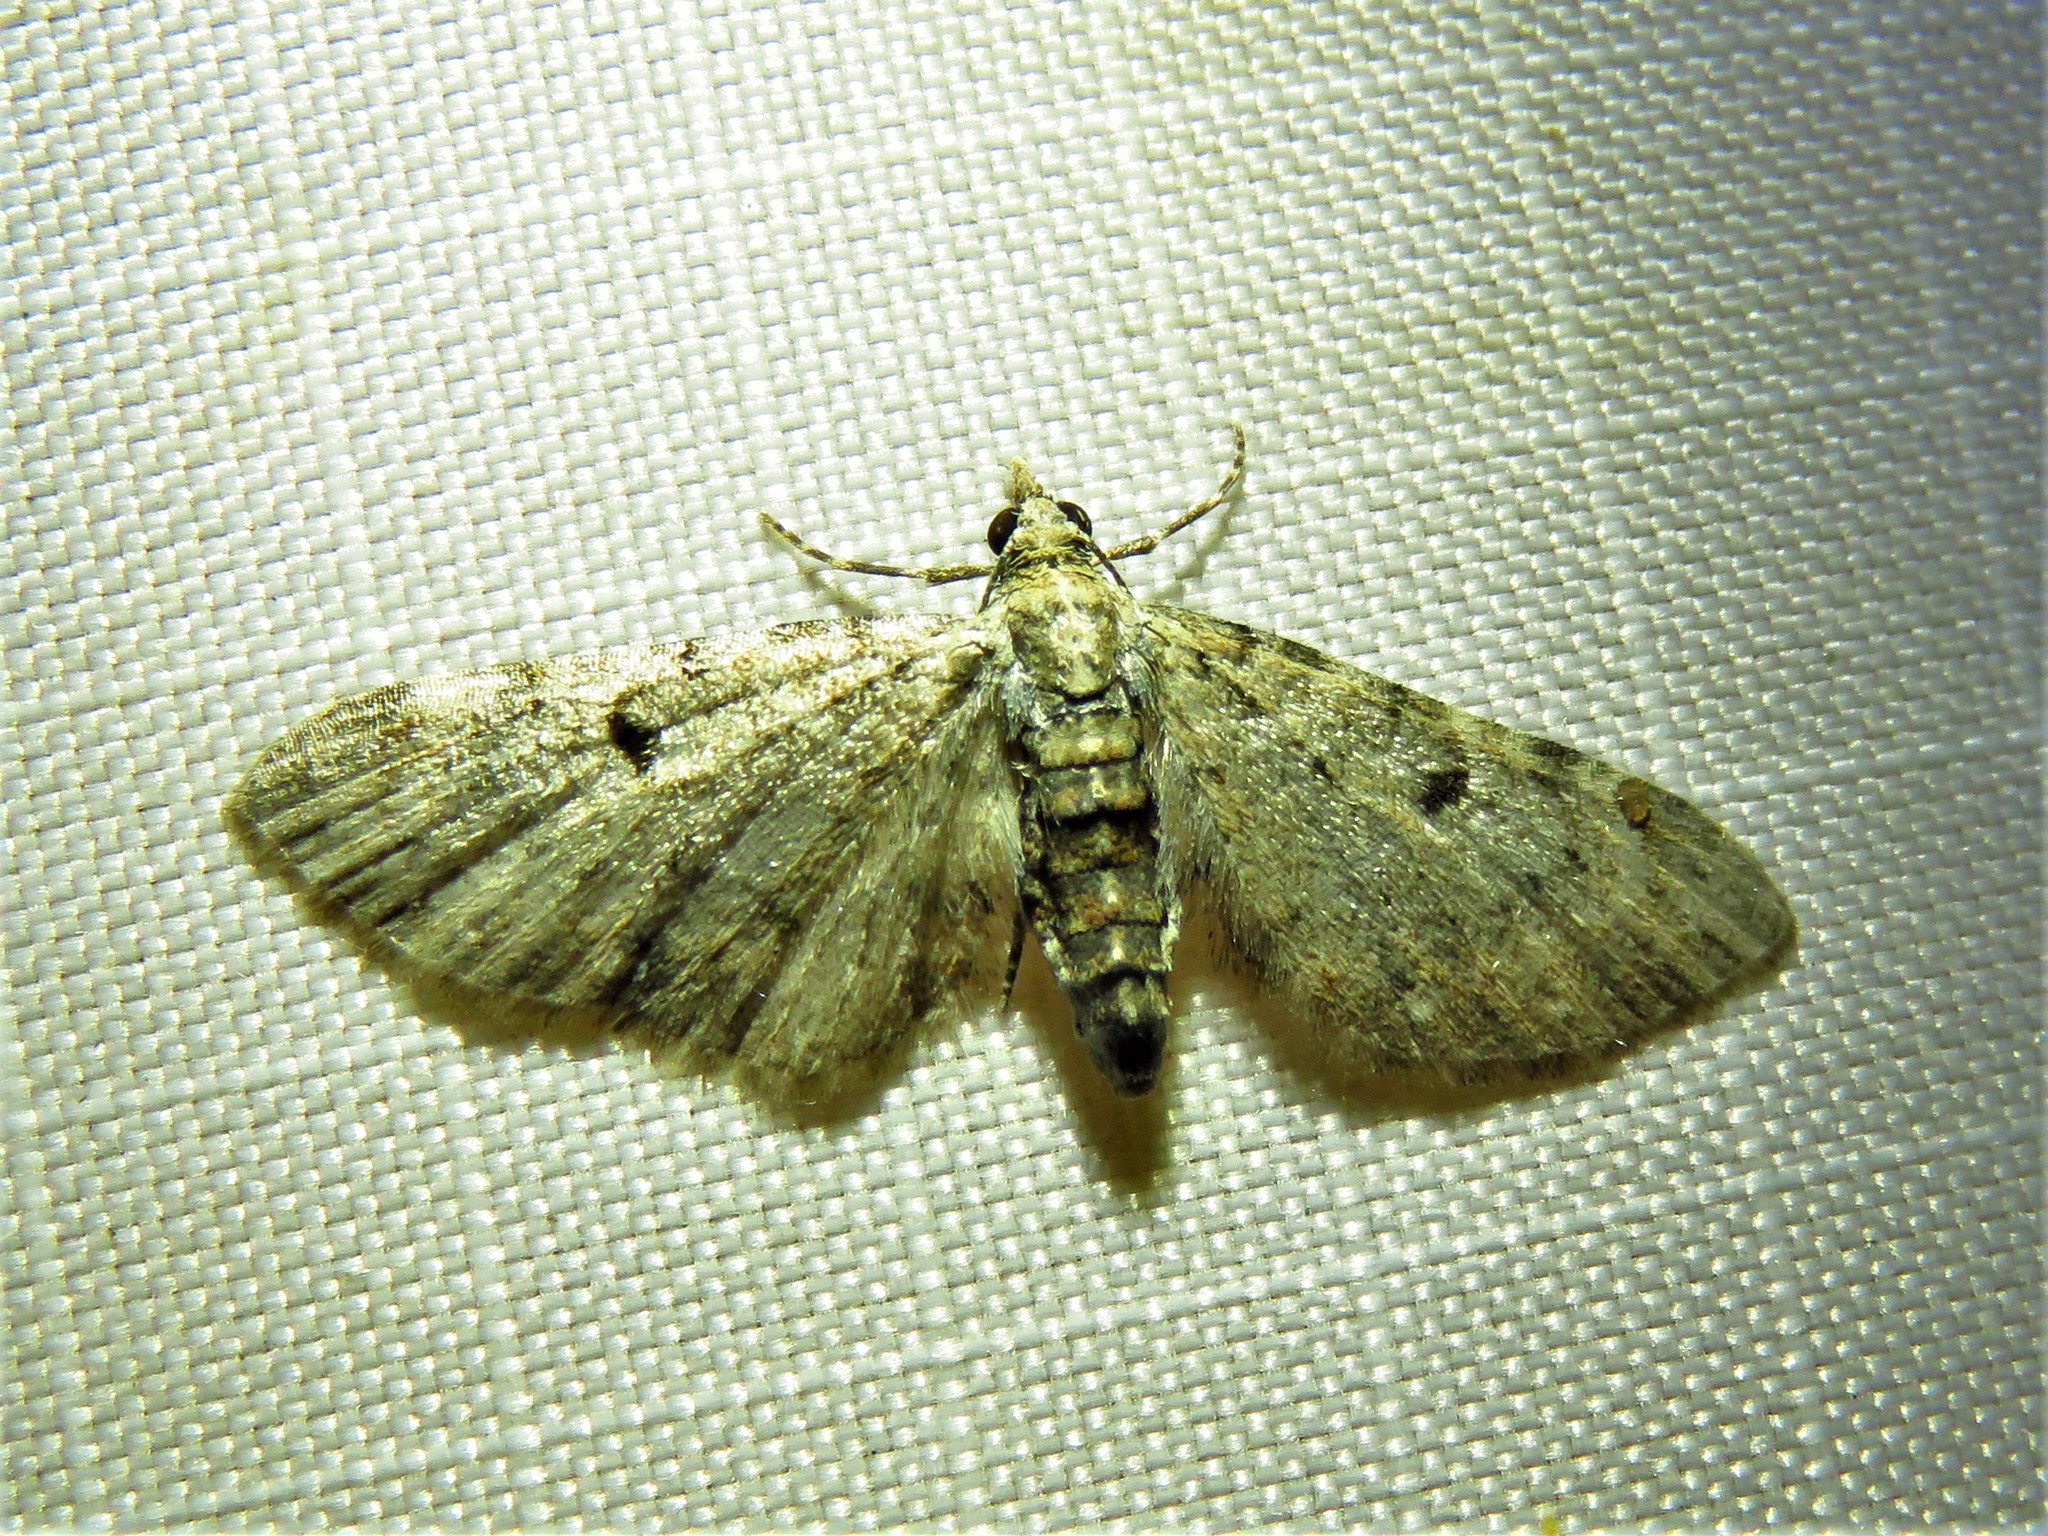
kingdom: Animalia
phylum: Arthropoda
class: Insecta
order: Lepidoptera
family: Geometridae
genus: Eupithecia
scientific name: Eupithecia miserulata
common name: Common eupithecia
